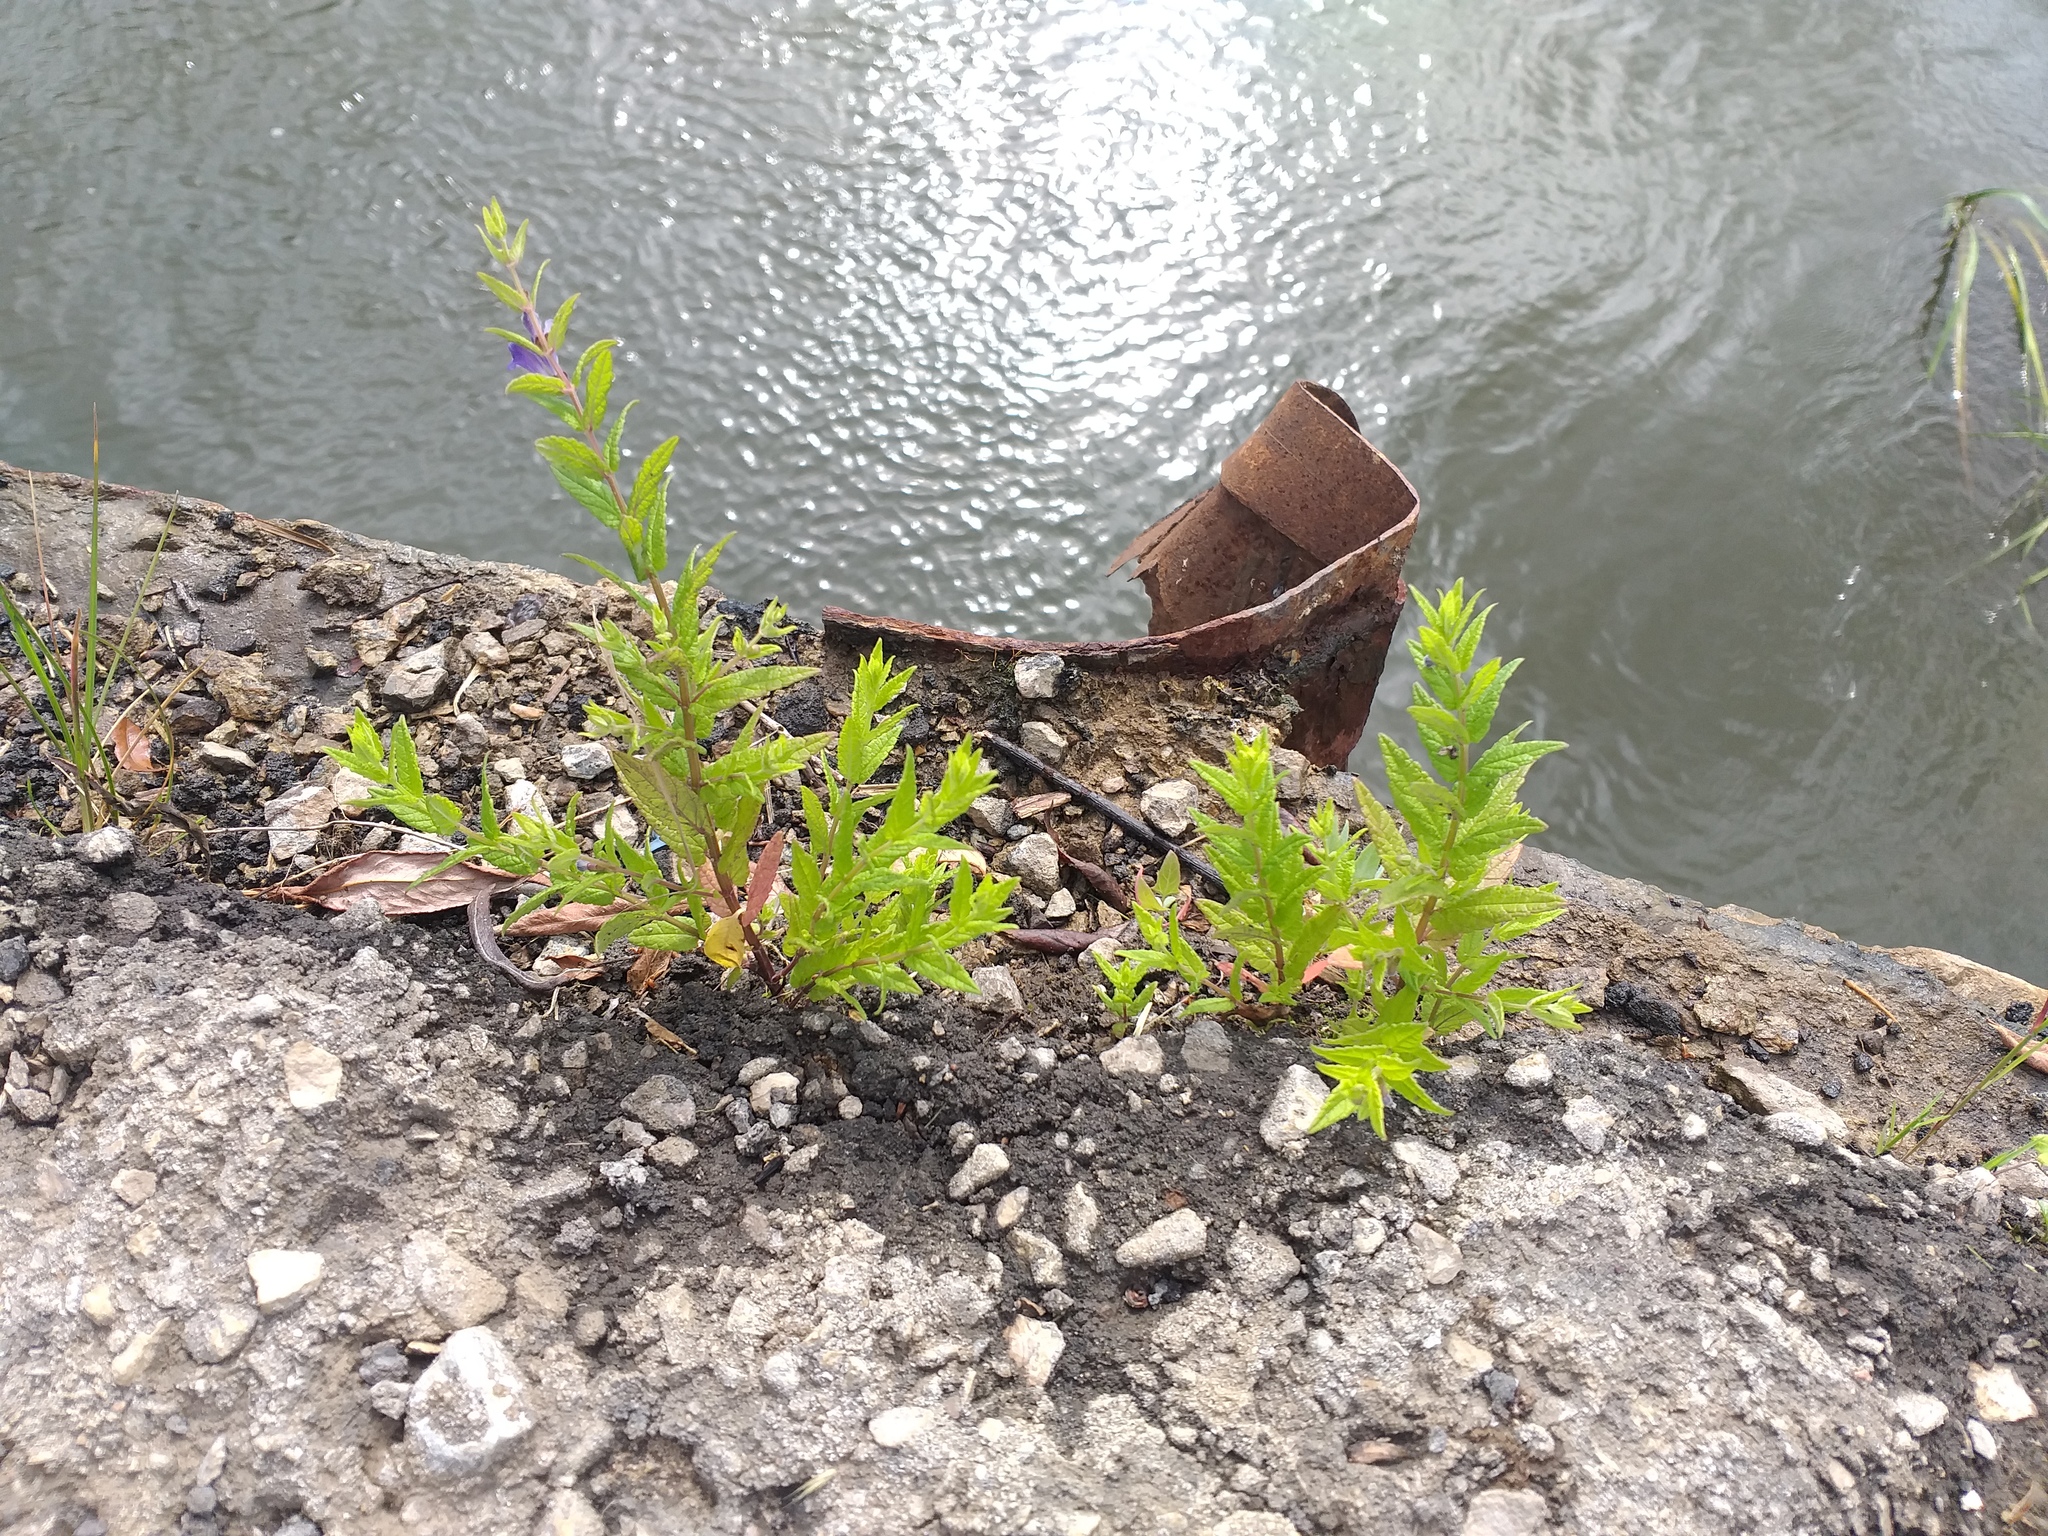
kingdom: Plantae
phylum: Tracheophyta
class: Magnoliopsida
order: Lamiales
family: Lamiaceae
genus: Scutellaria
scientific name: Scutellaria galericulata
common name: Skullcap
